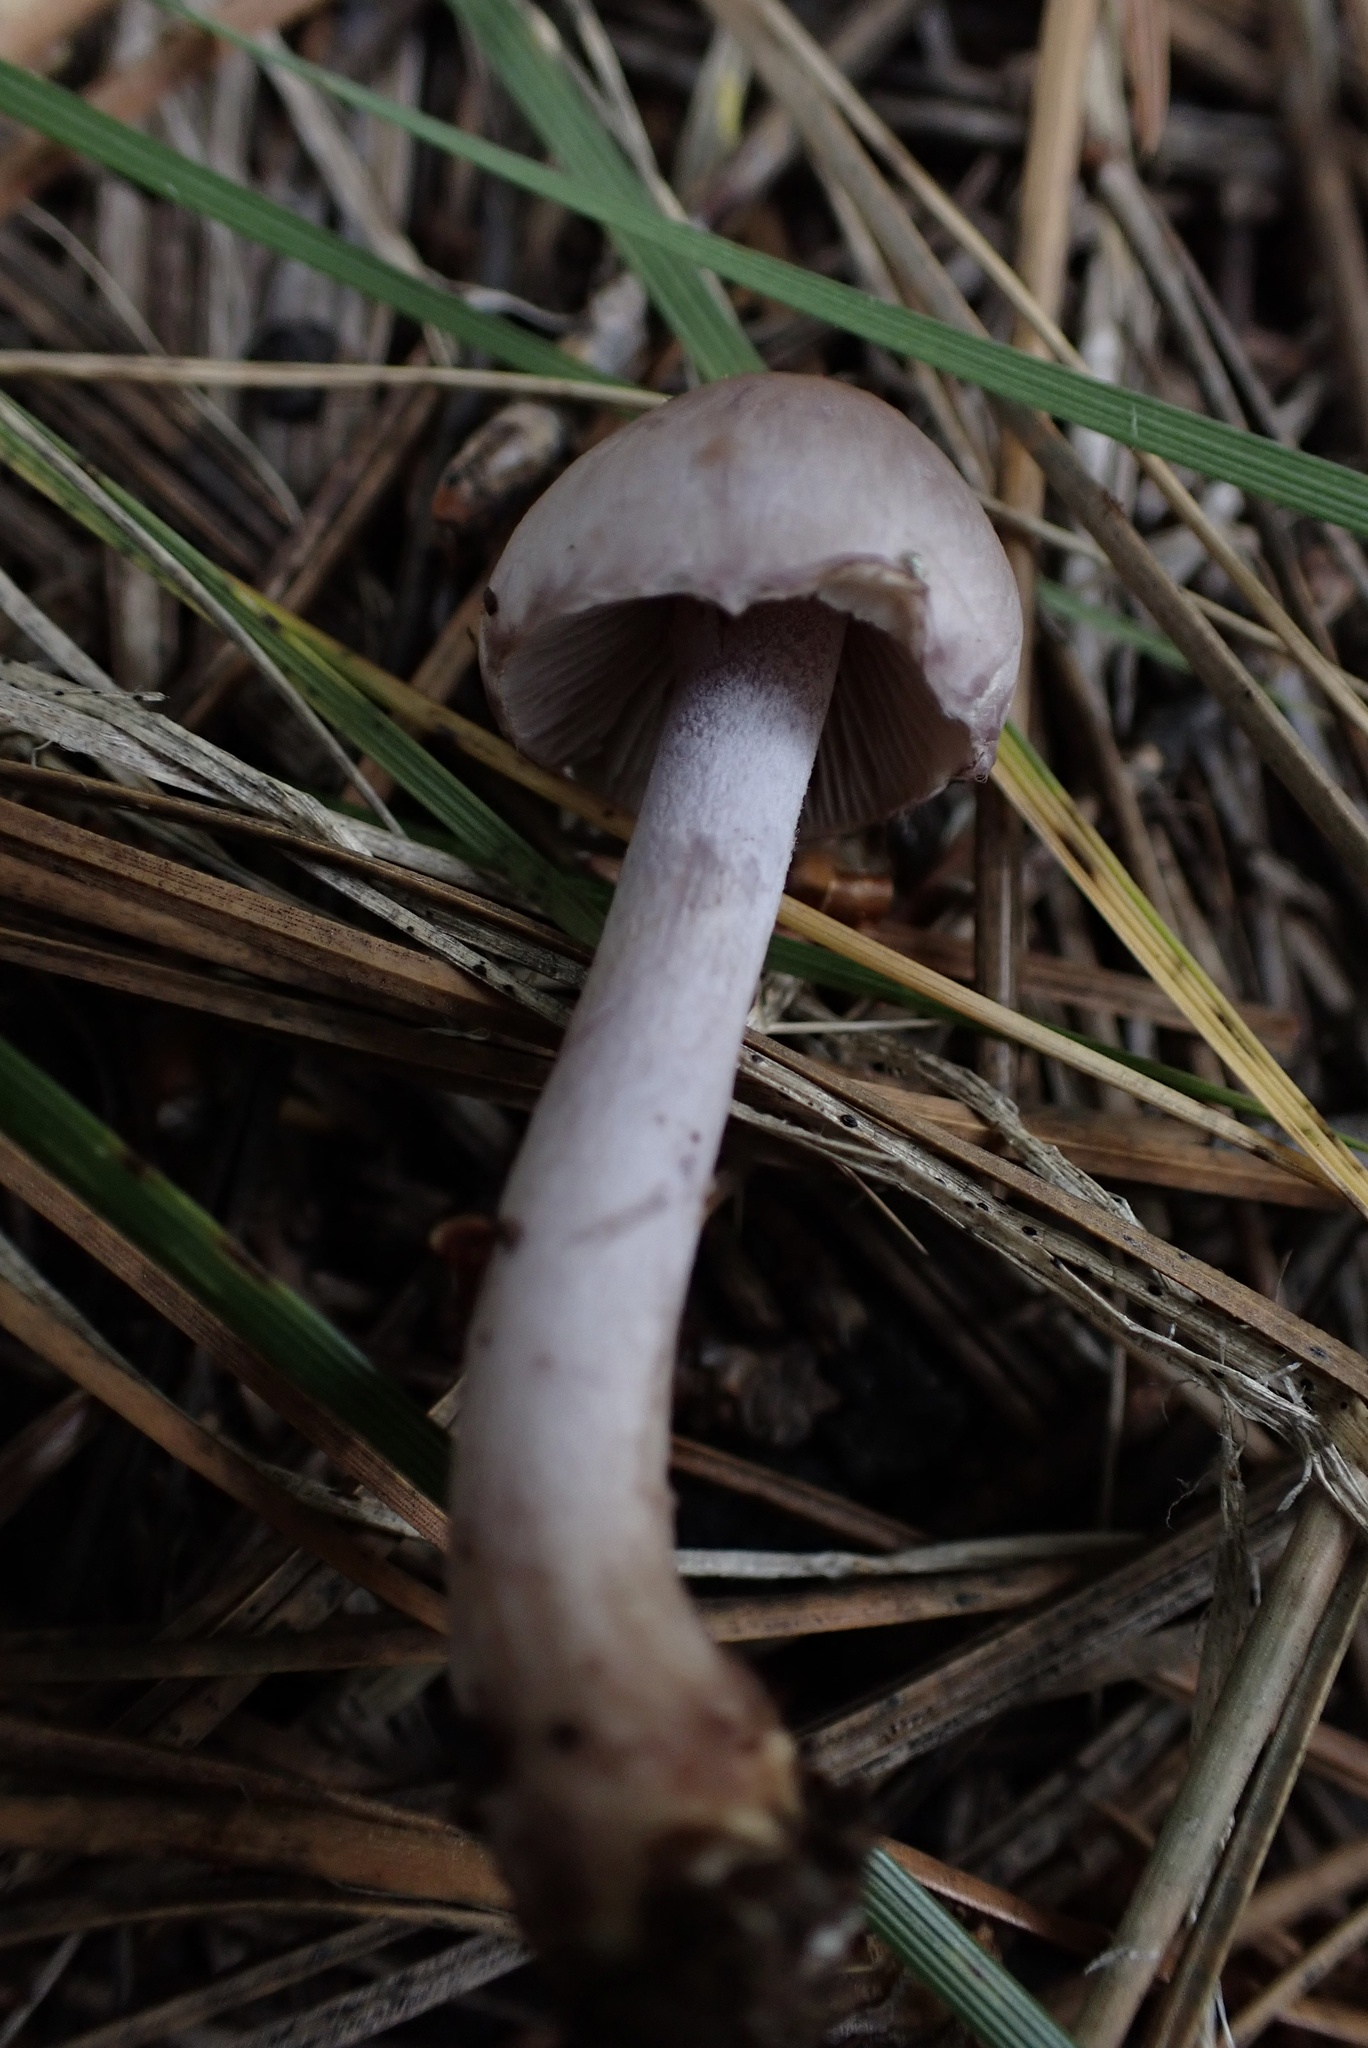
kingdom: Fungi
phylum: Basidiomycota
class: Agaricomycetes
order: Agaricales
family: Inocybaceae
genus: Inocybe
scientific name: Inocybe pallidicremea
